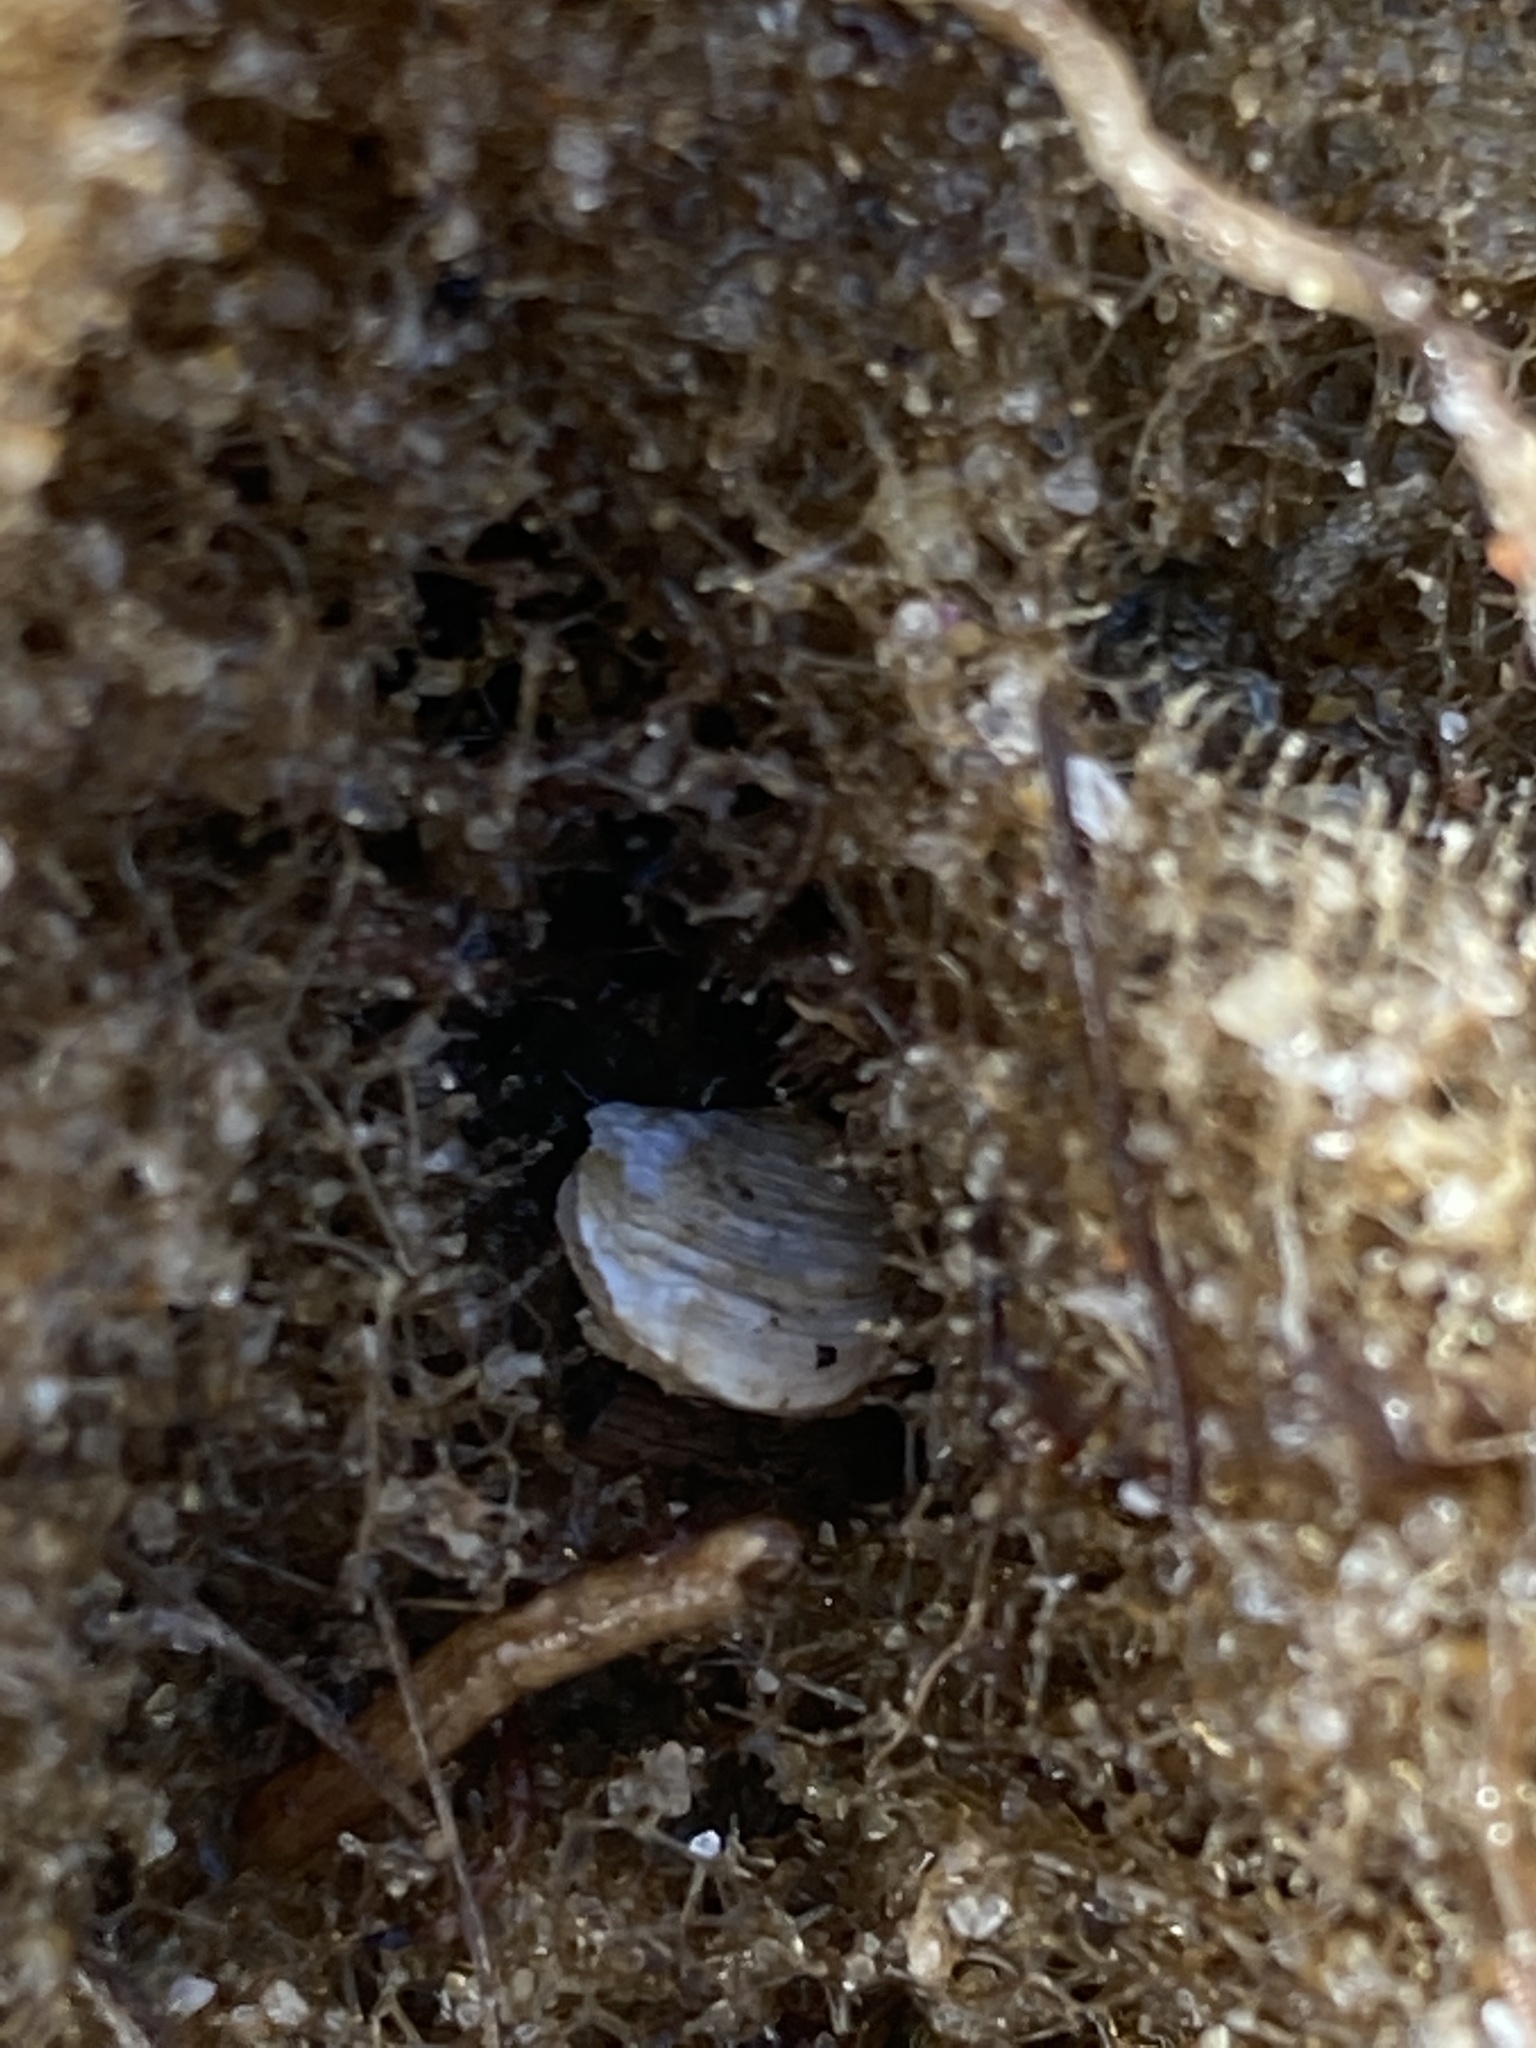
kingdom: Animalia
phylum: Mollusca
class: Bivalvia
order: Adapedonta
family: Hiatellidae
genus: Hiatella
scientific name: Hiatella australis
